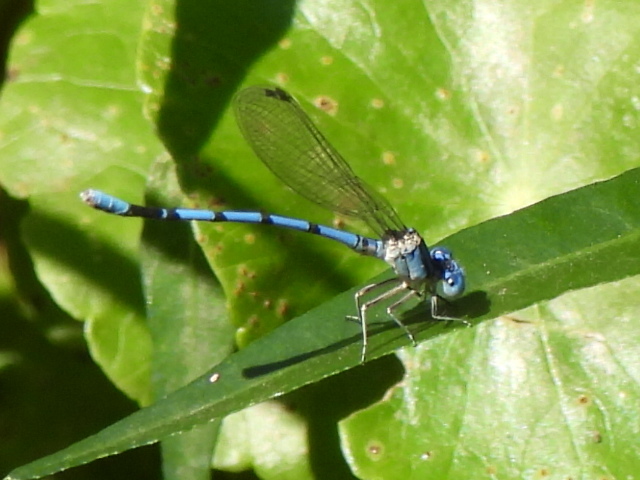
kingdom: Animalia
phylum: Arthropoda
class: Insecta
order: Odonata
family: Coenagrionidae
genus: Argia
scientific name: Argia nahuana
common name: Aztec dancer
